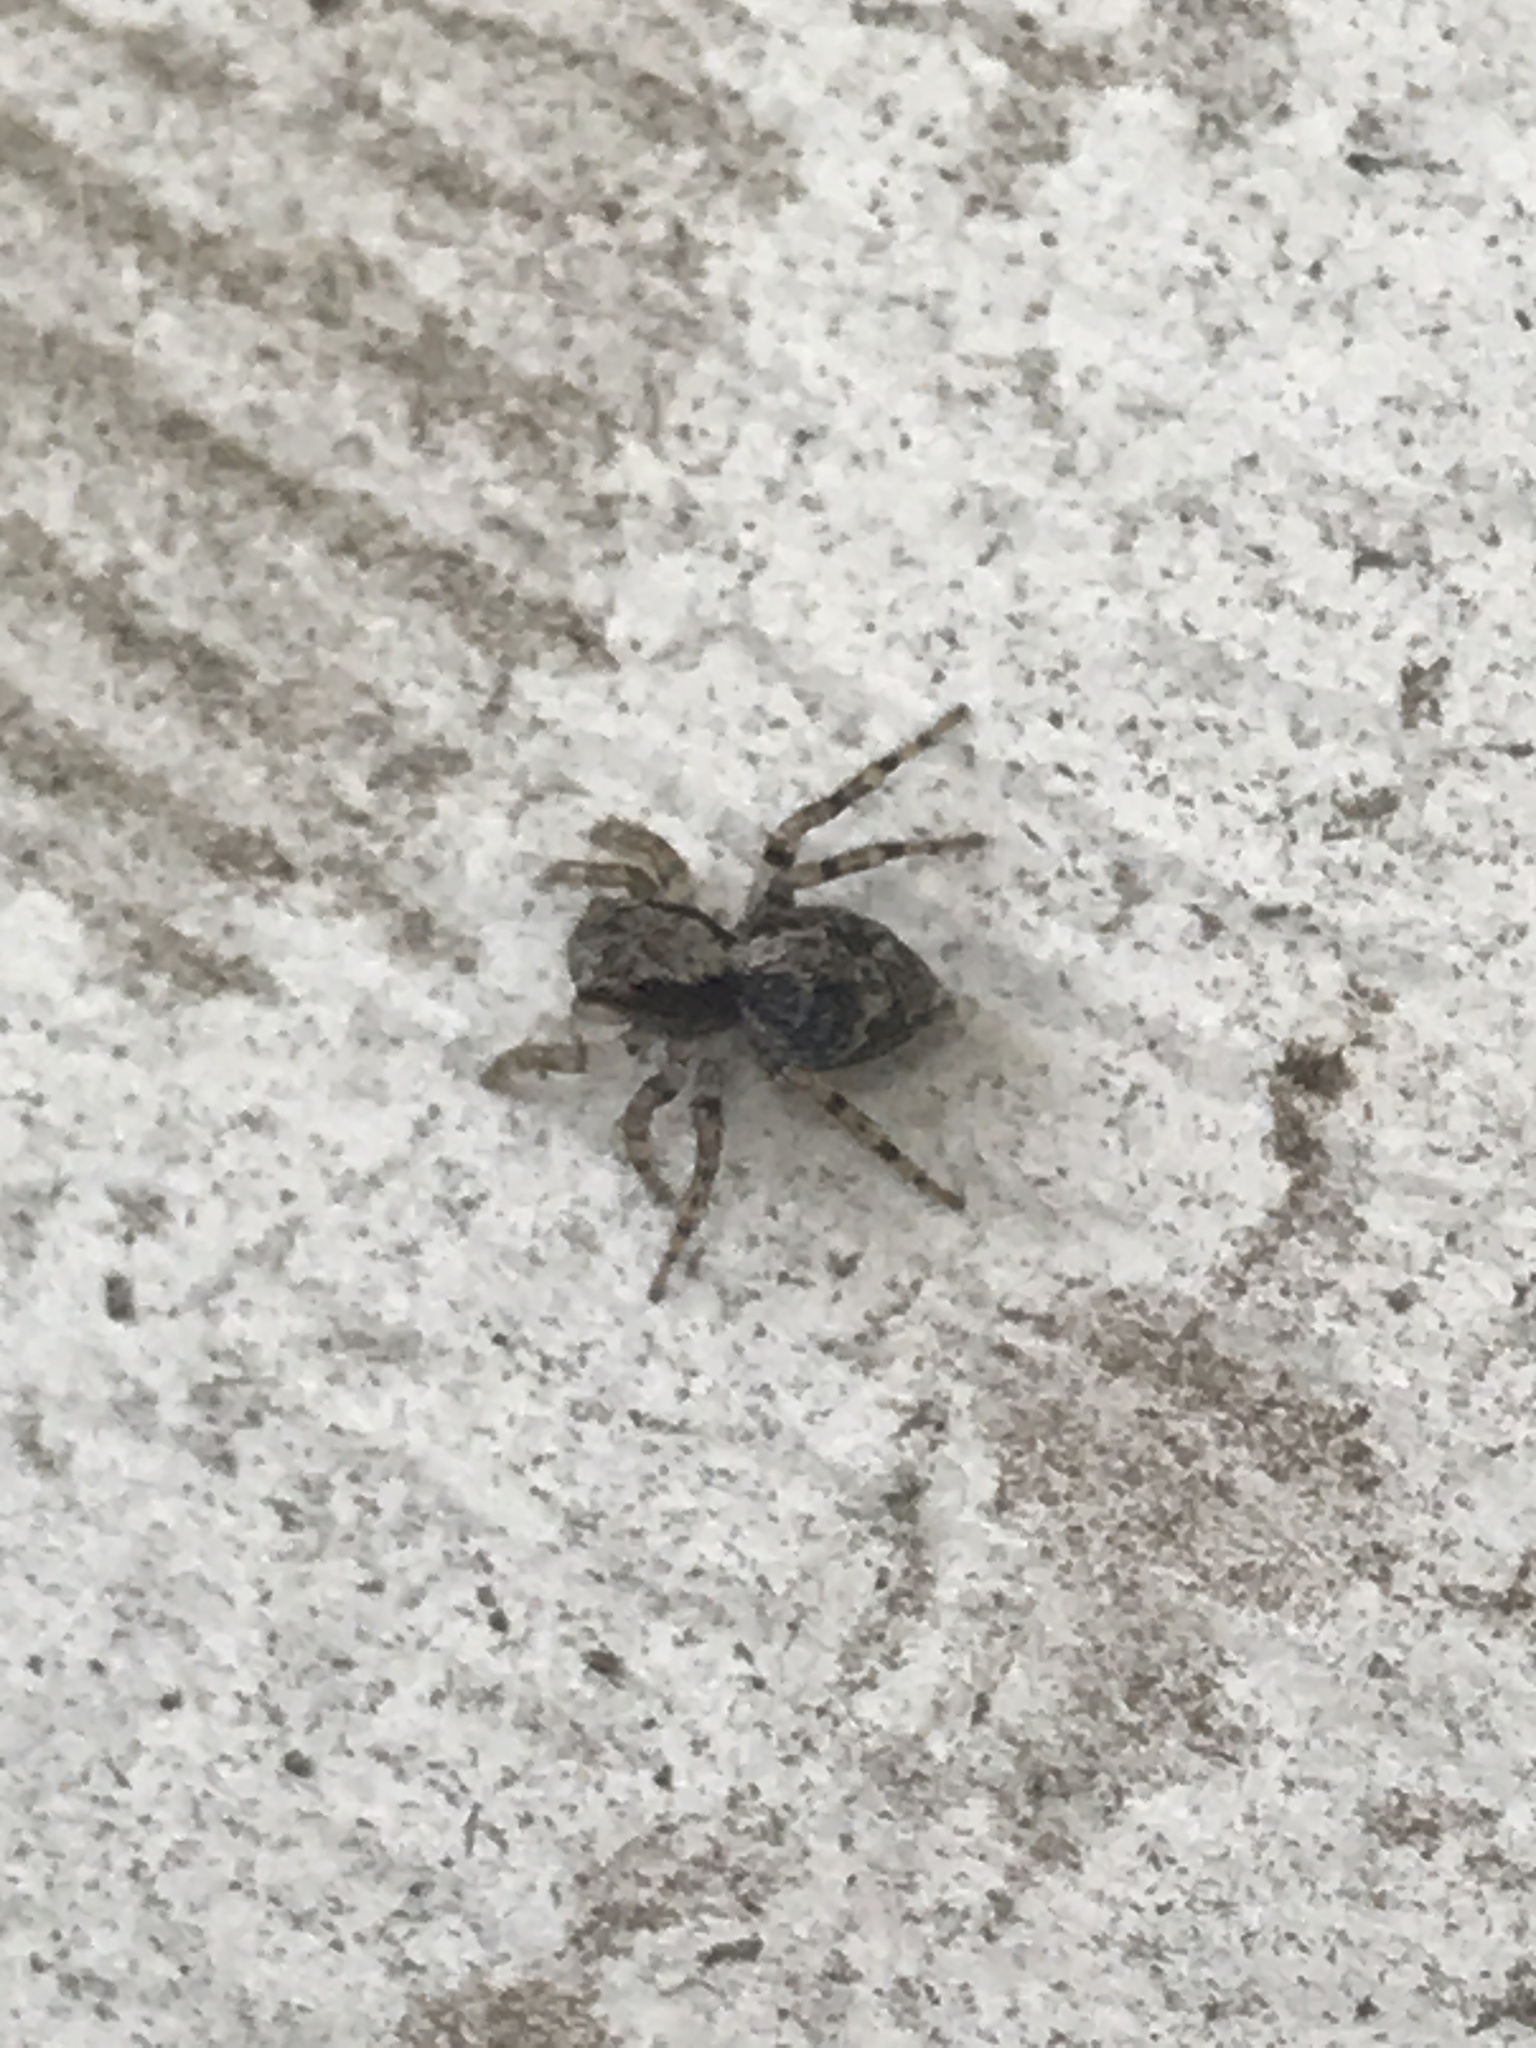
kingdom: Animalia
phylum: Arthropoda
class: Arachnida
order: Araneae
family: Salticidae
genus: Naphrys
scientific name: Naphrys pulex
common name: Flea jumping spider
